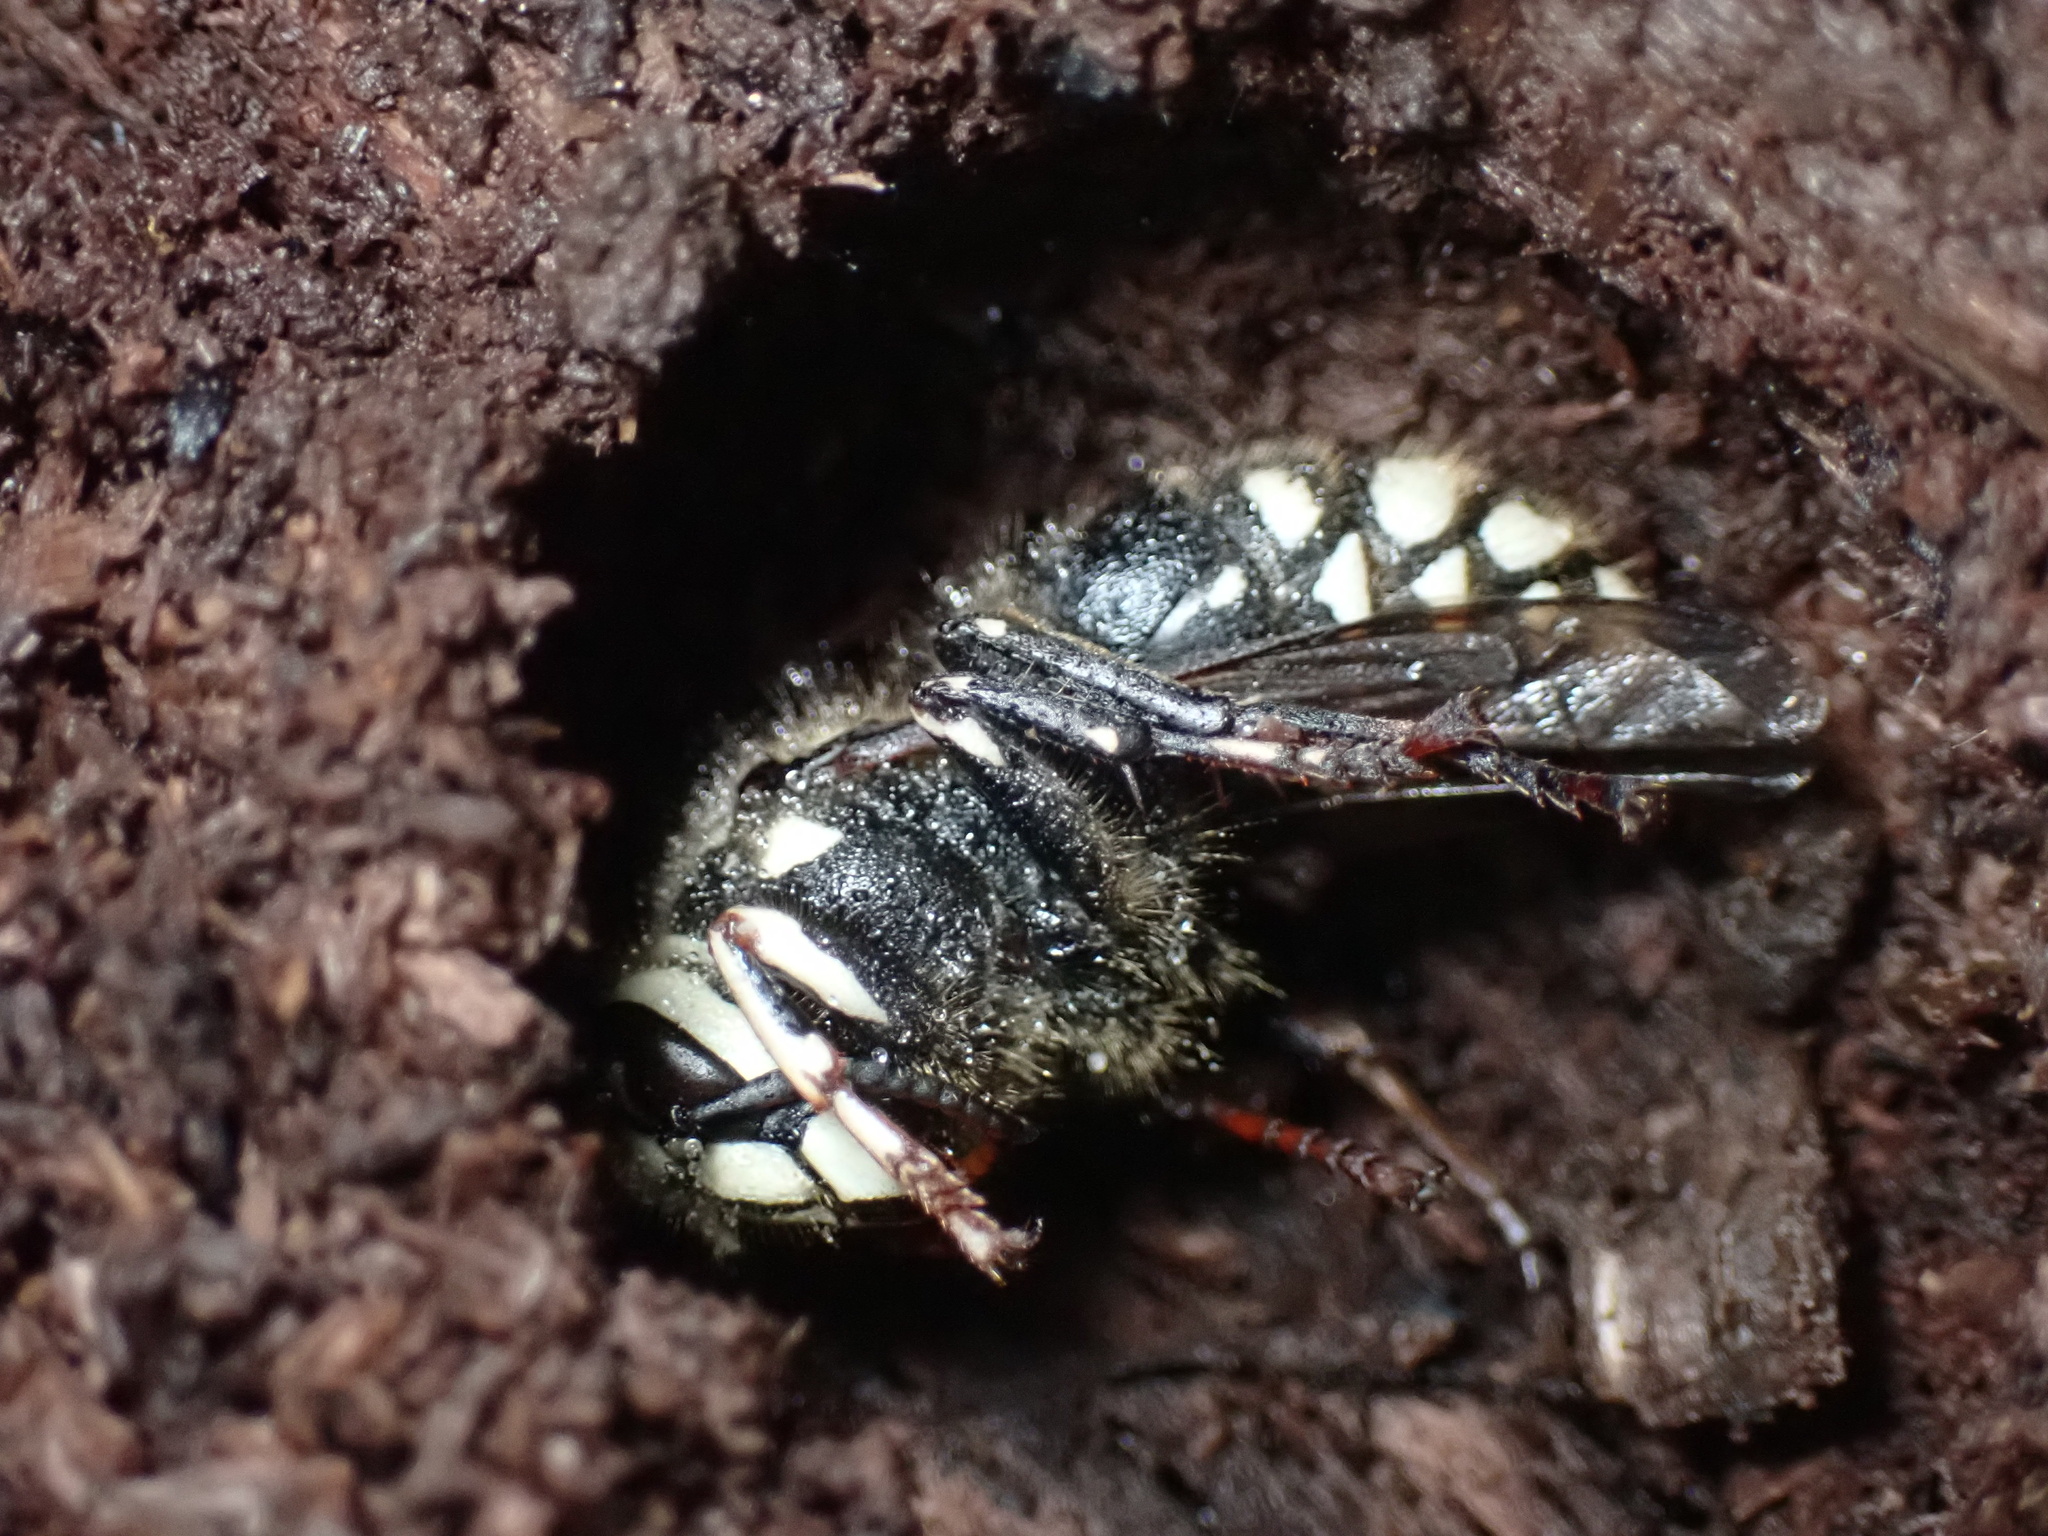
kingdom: Animalia
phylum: Arthropoda
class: Insecta
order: Hymenoptera
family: Vespidae
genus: Dolichovespula
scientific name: Dolichovespula maculata
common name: Bald-faced hornet
